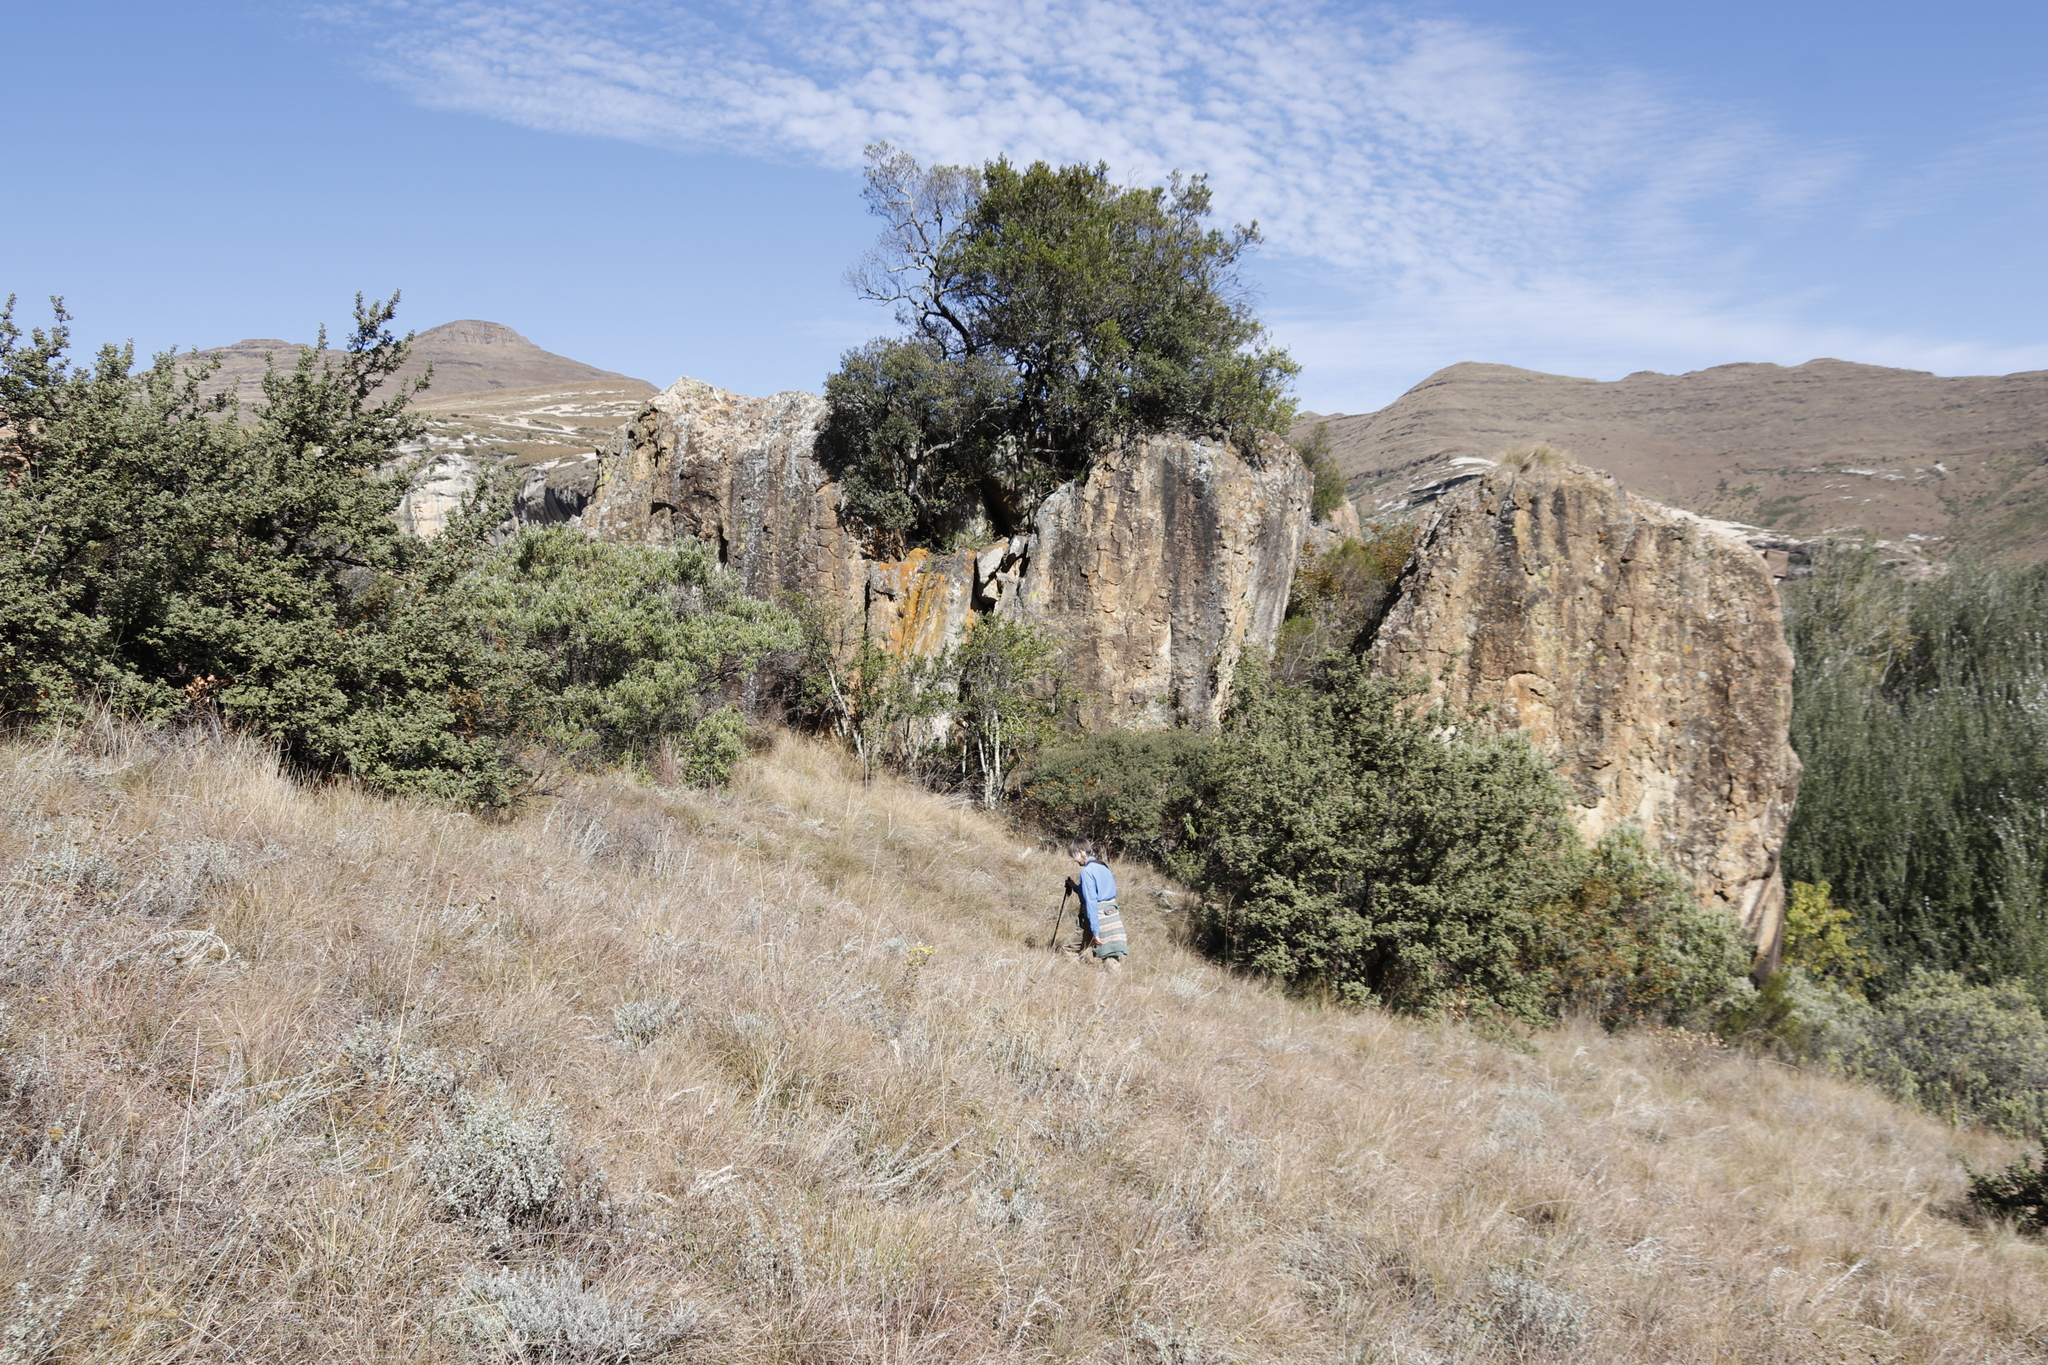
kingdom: Plantae
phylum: Tracheophyta
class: Magnoliopsida
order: Ericales
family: Ebenaceae
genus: Euclea
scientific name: Euclea crispa
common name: Blue guarri
